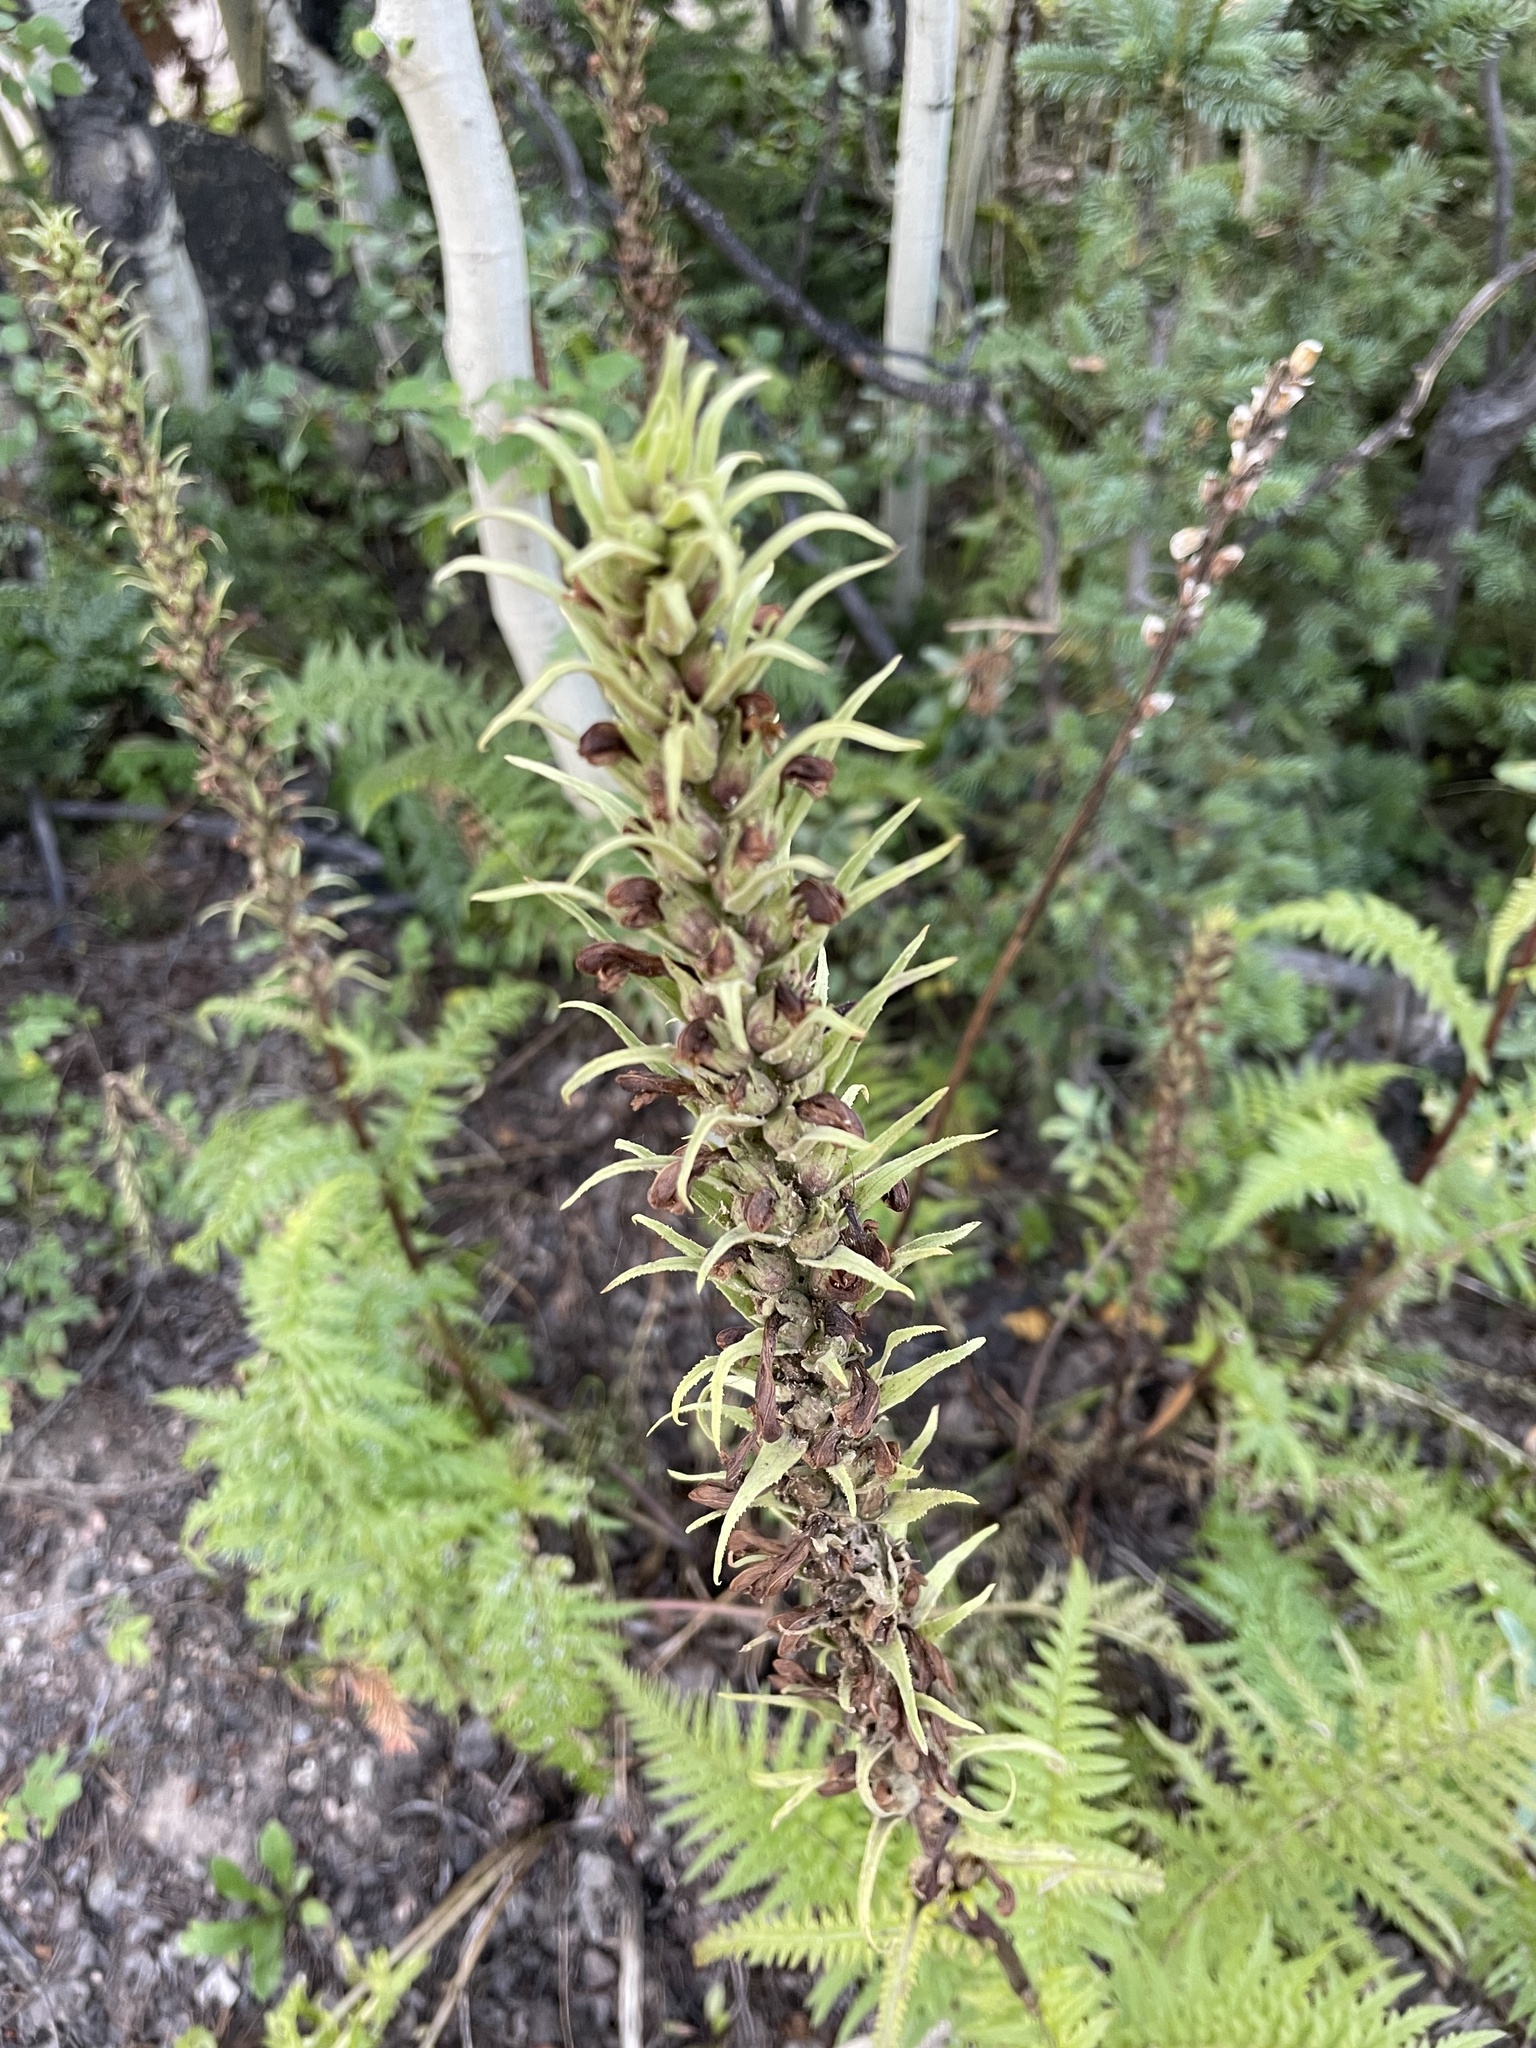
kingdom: Plantae
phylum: Tracheophyta
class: Magnoliopsida
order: Lamiales
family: Orobanchaceae
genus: Pedicularis
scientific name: Pedicularis procera
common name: Gray's lousewort
